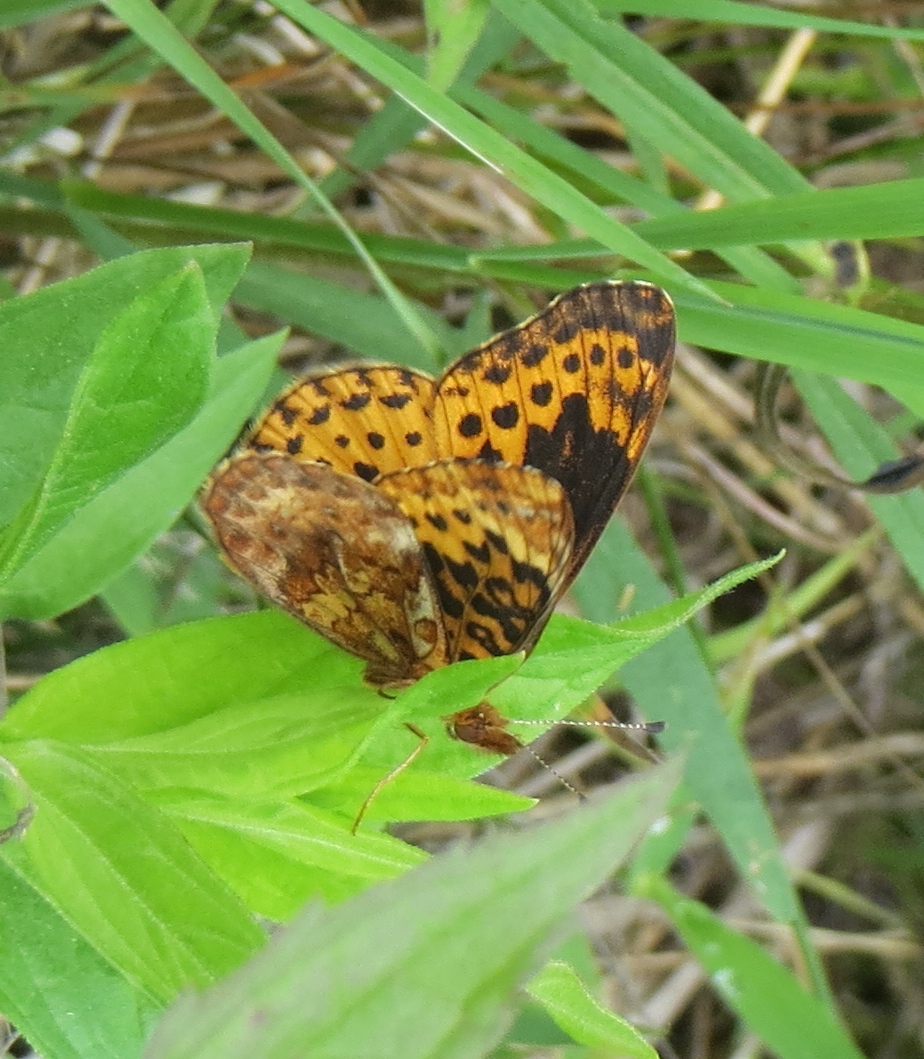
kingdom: Animalia
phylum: Arthropoda
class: Insecta
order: Lepidoptera
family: Nymphalidae
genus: Clossiana
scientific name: Clossiana toddi
